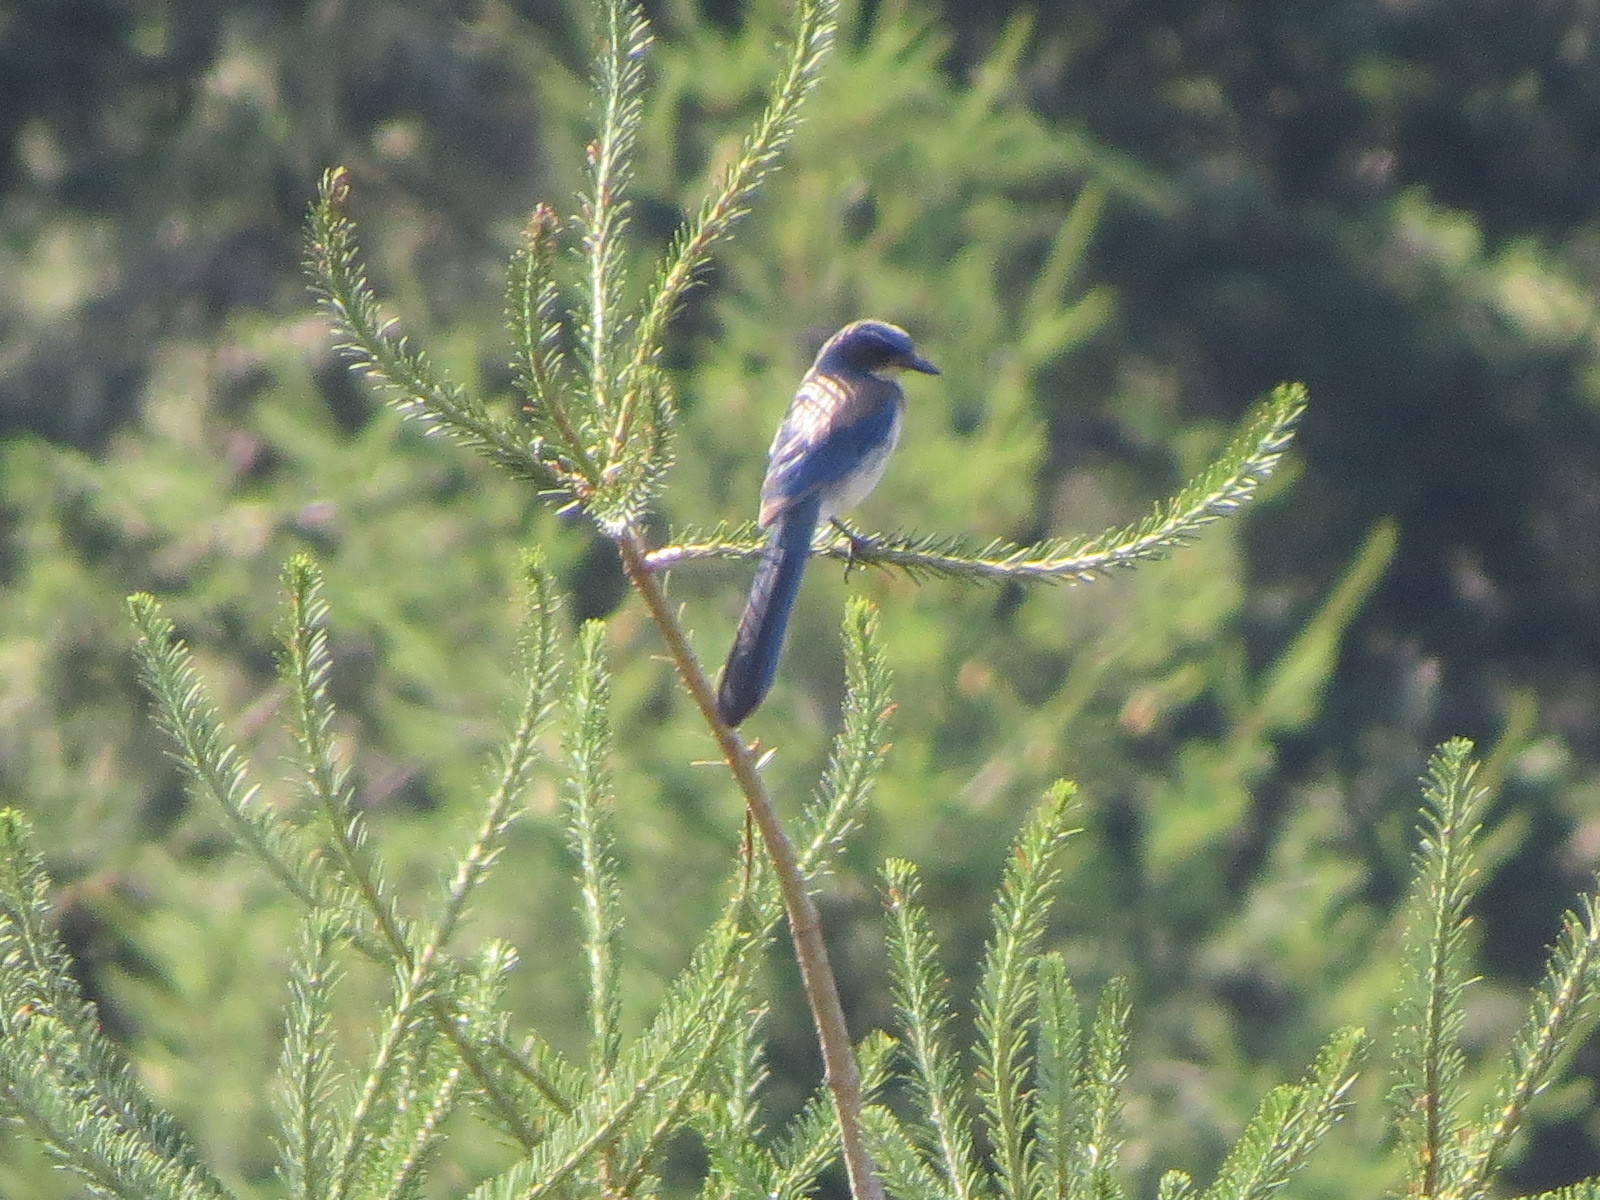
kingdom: Animalia
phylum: Chordata
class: Aves
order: Passeriformes
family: Corvidae
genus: Aphelocoma
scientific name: Aphelocoma californica
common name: California scrub-jay
